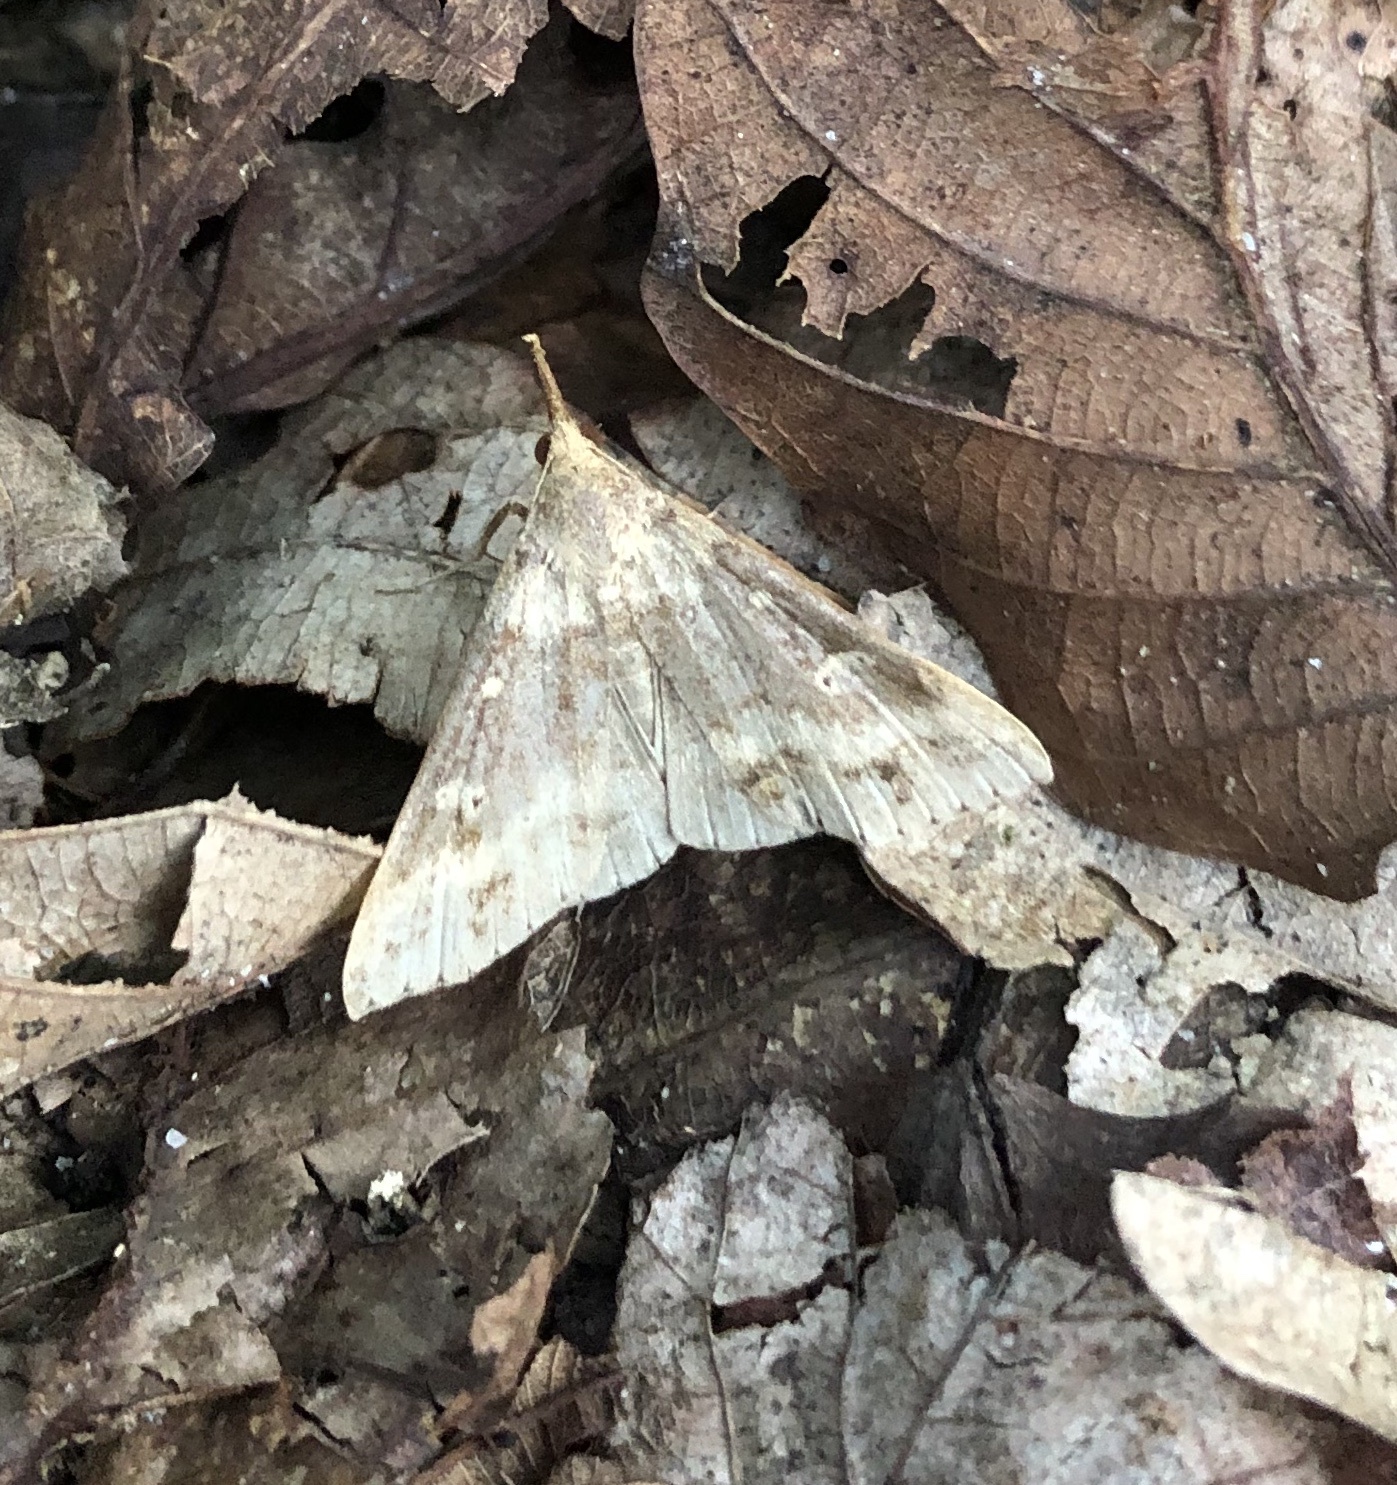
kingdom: Animalia
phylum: Arthropoda
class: Insecta
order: Lepidoptera
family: Erebidae
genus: Renia
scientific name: Renia discoloralis
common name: Discolored renia moth
